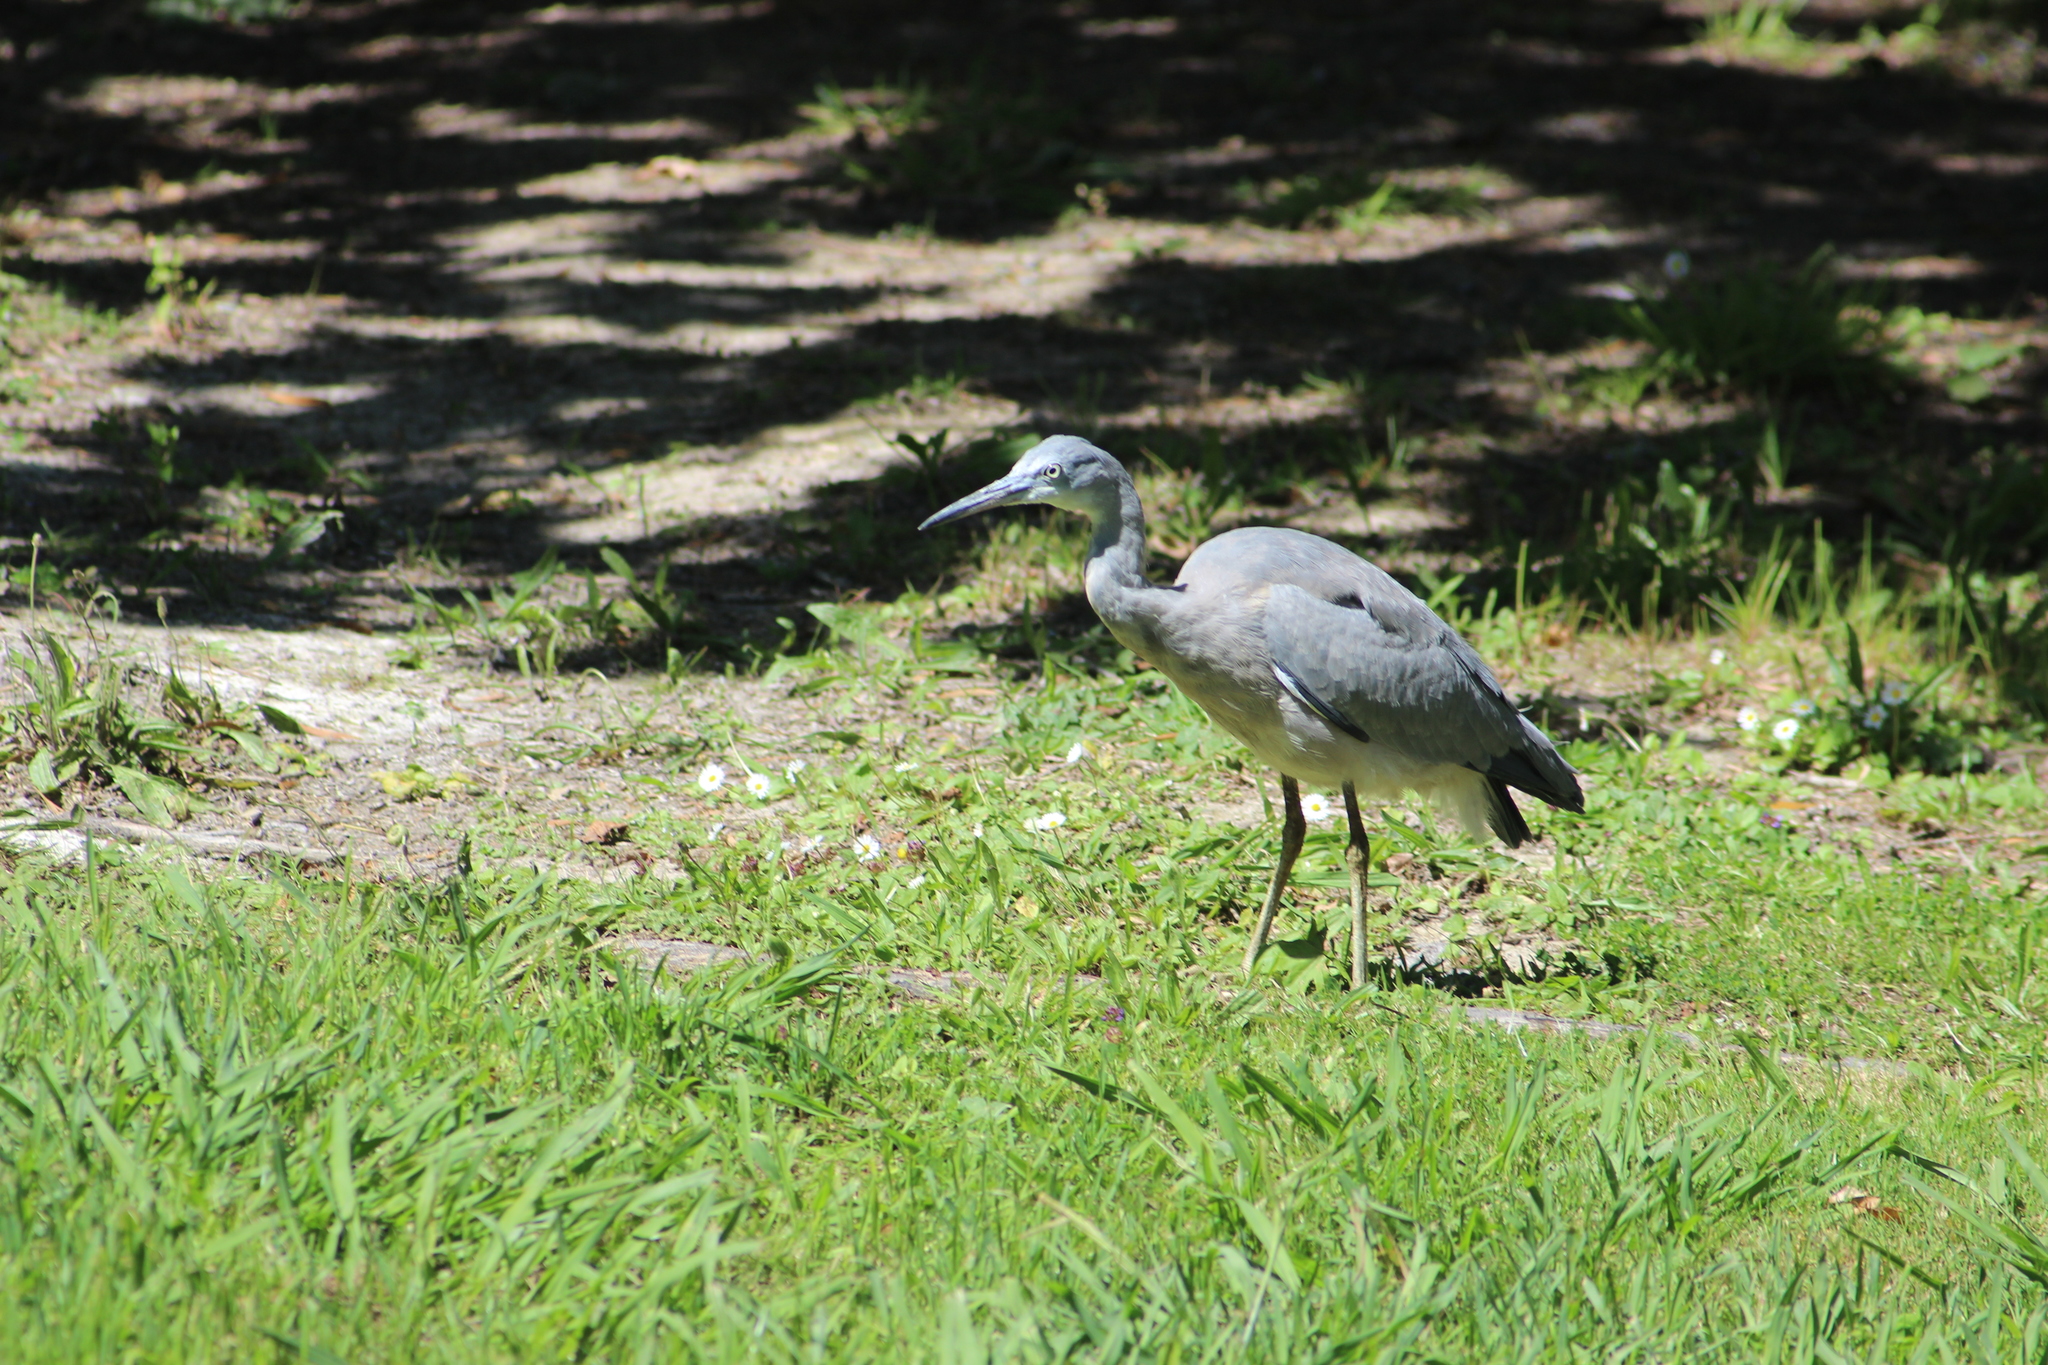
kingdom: Animalia
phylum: Chordata
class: Aves
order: Pelecaniformes
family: Ardeidae
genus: Egretta
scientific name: Egretta novaehollandiae
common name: White-faced heron
